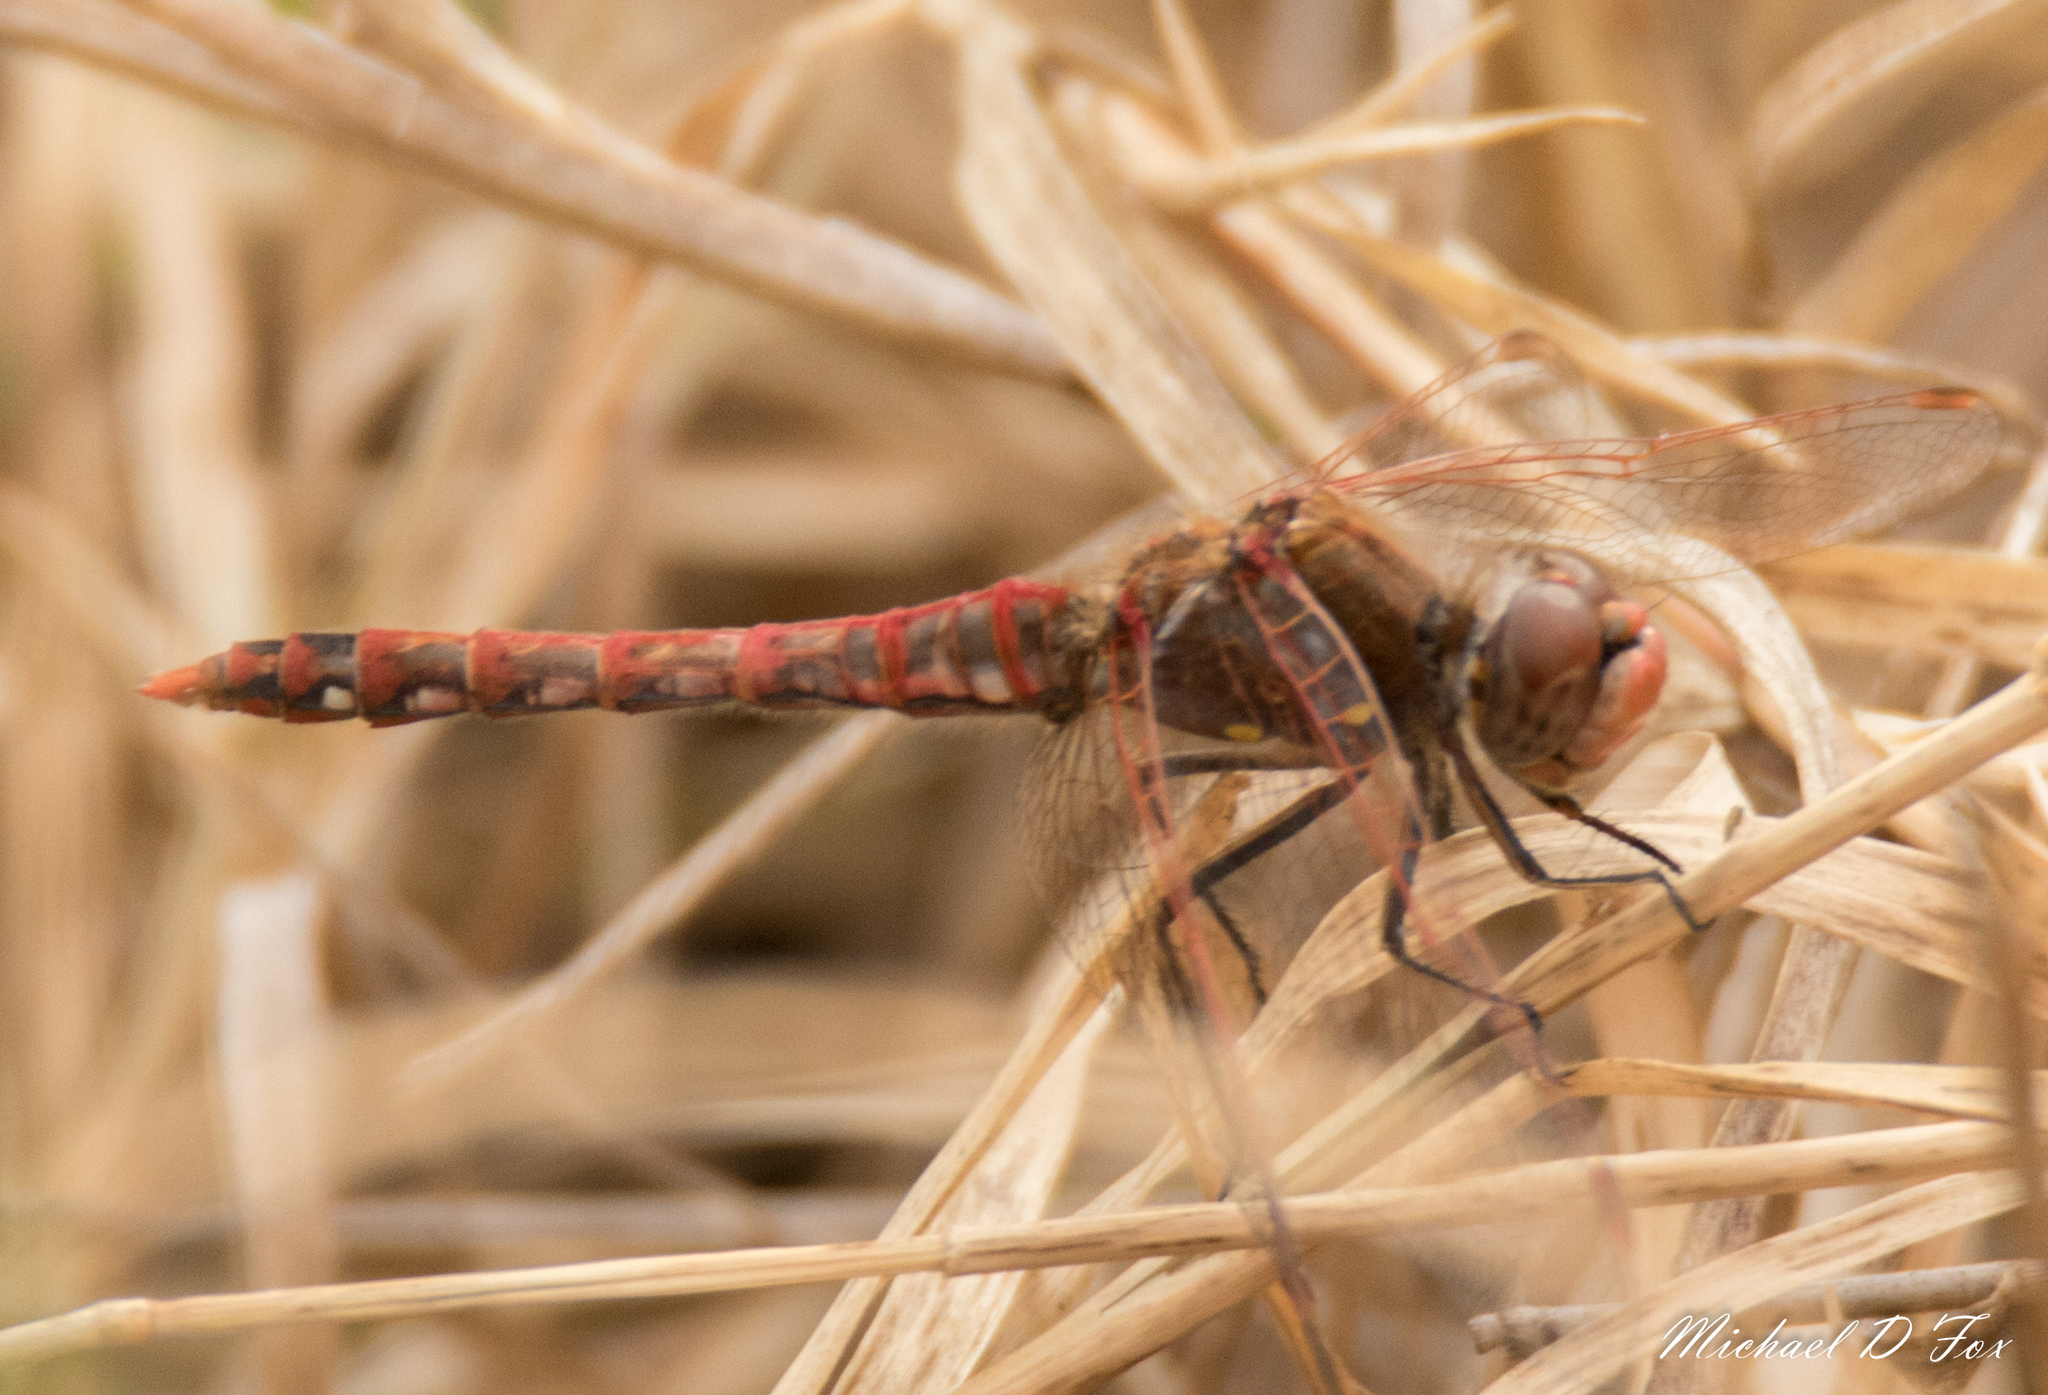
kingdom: Animalia
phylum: Arthropoda
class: Insecta
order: Odonata
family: Libellulidae
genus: Sympetrum
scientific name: Sympetrum corruptum
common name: Variegated meadowhawk
